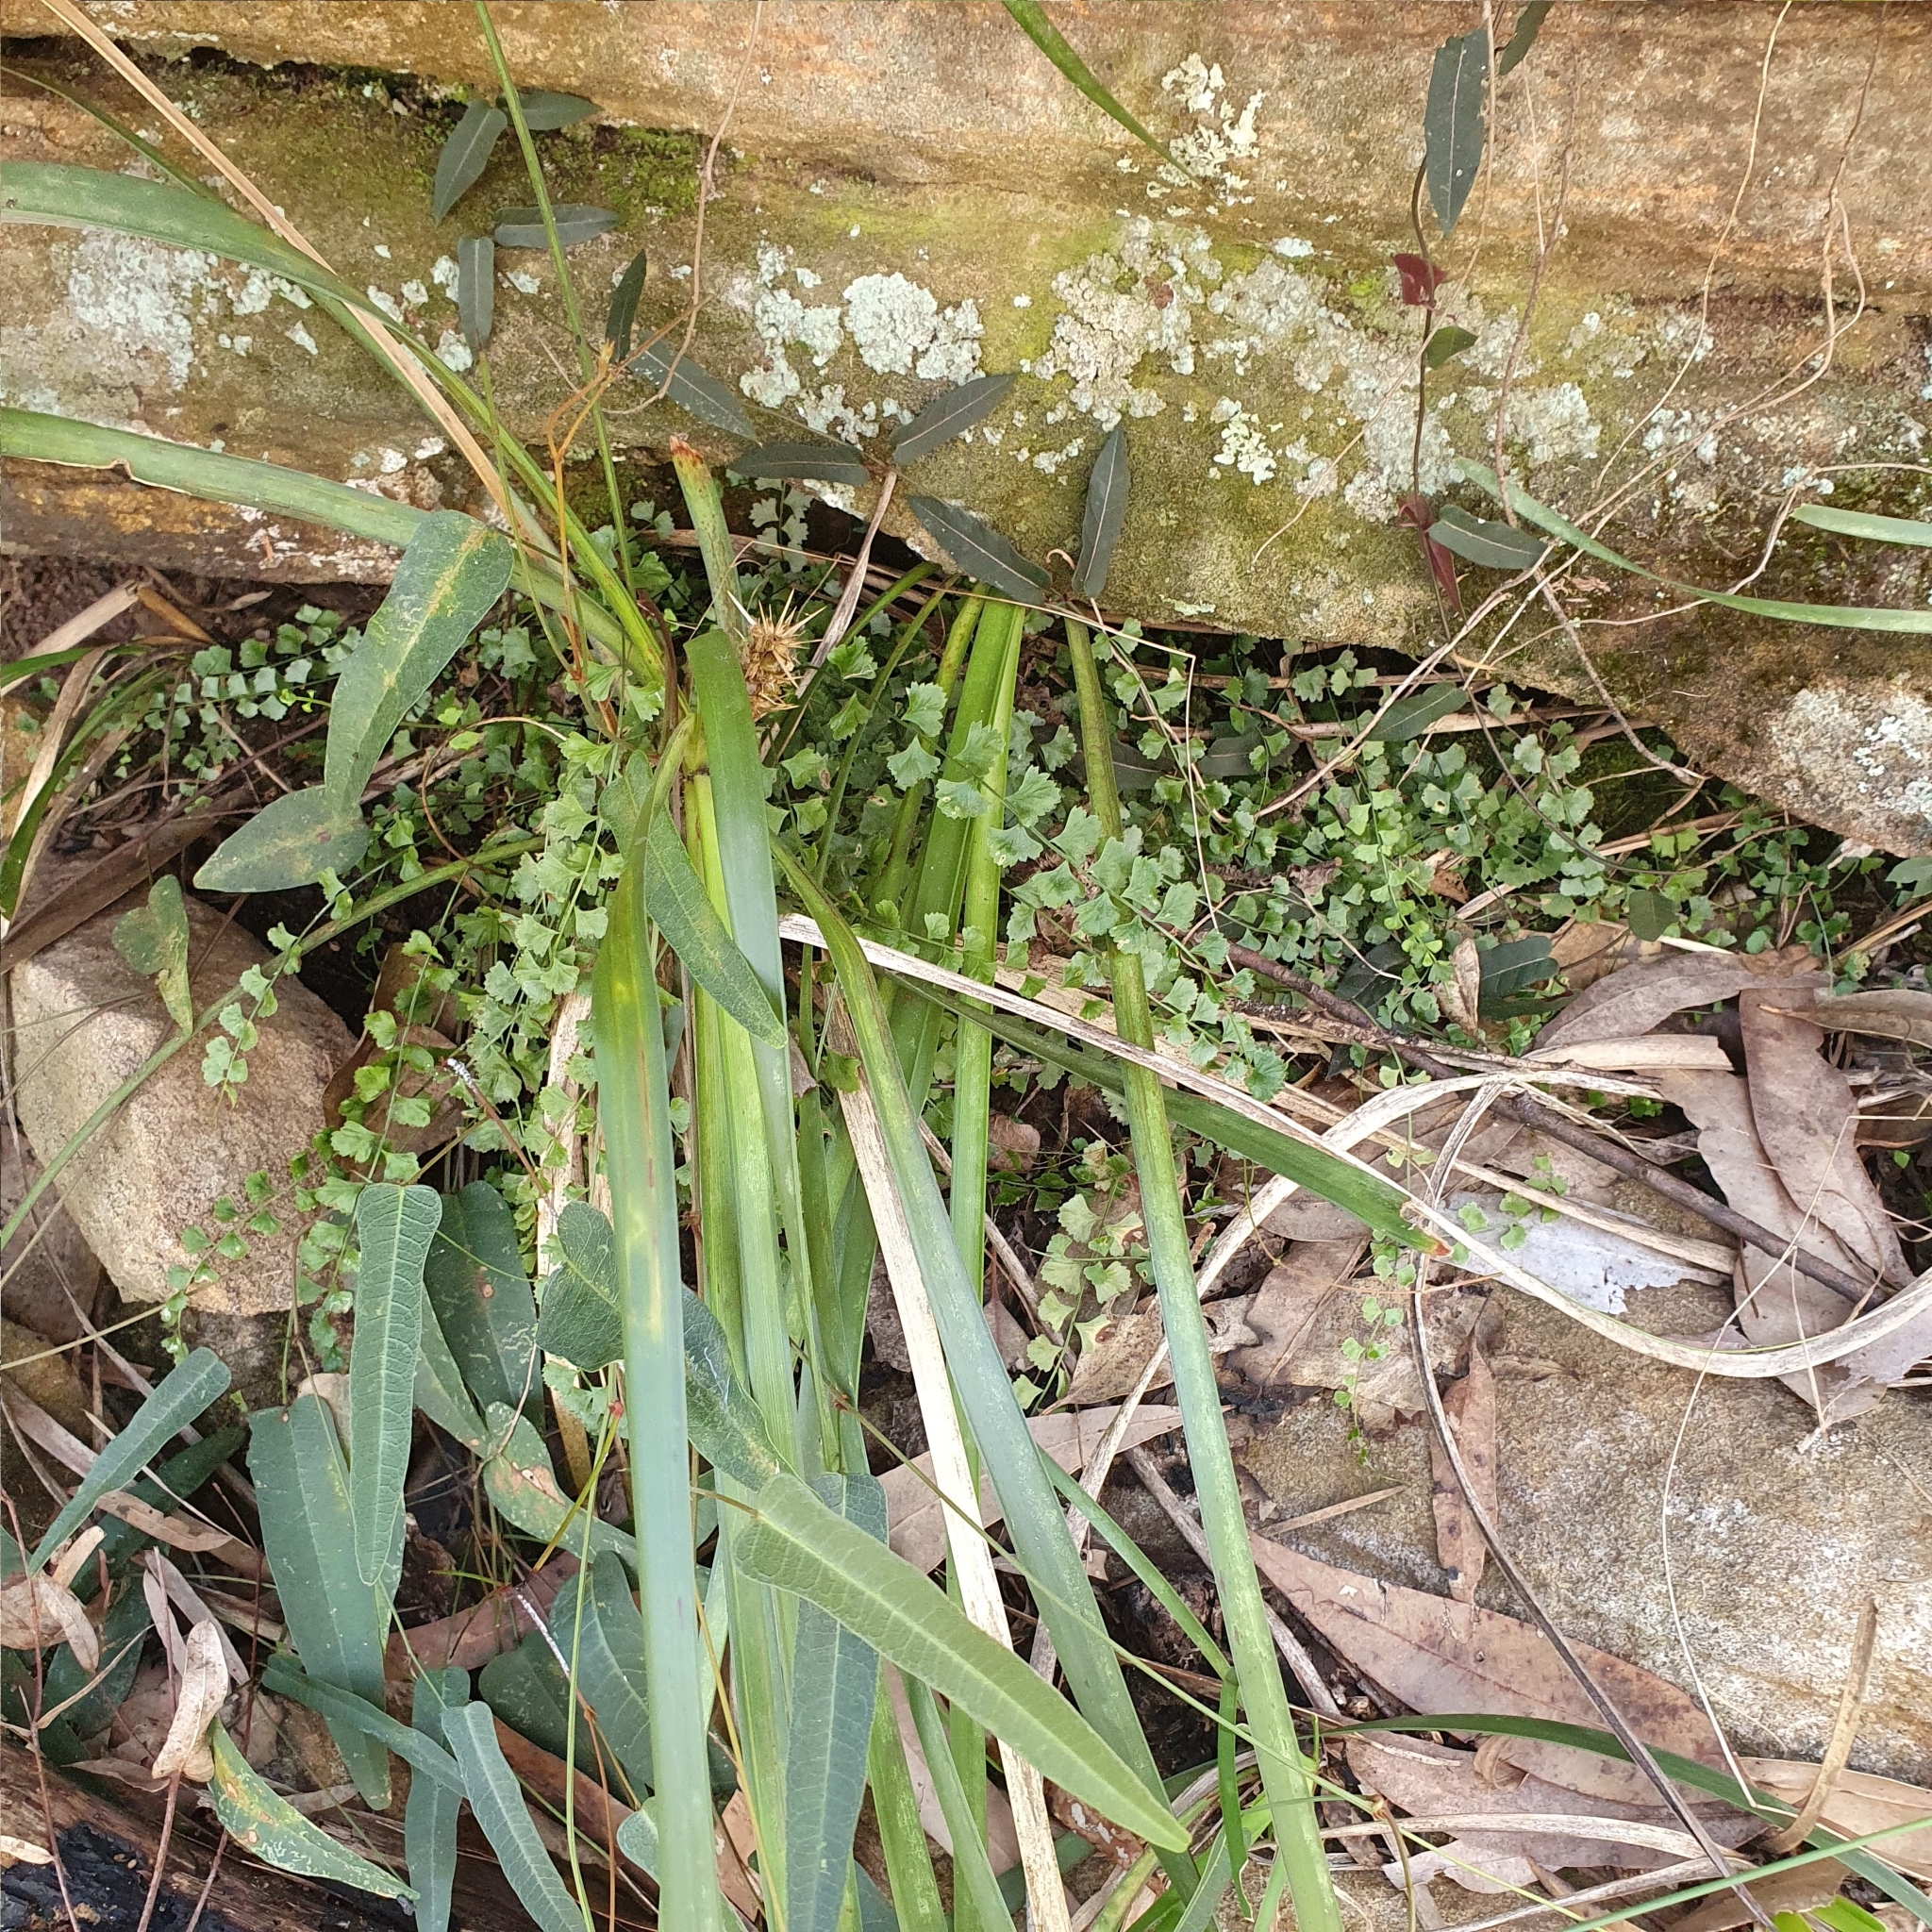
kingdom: Plantae
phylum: Tracheophyta
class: Polypodiopsida
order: Polypodiales
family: Aspleniaceae
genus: Asplenium
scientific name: Asplenium flabellifolium
